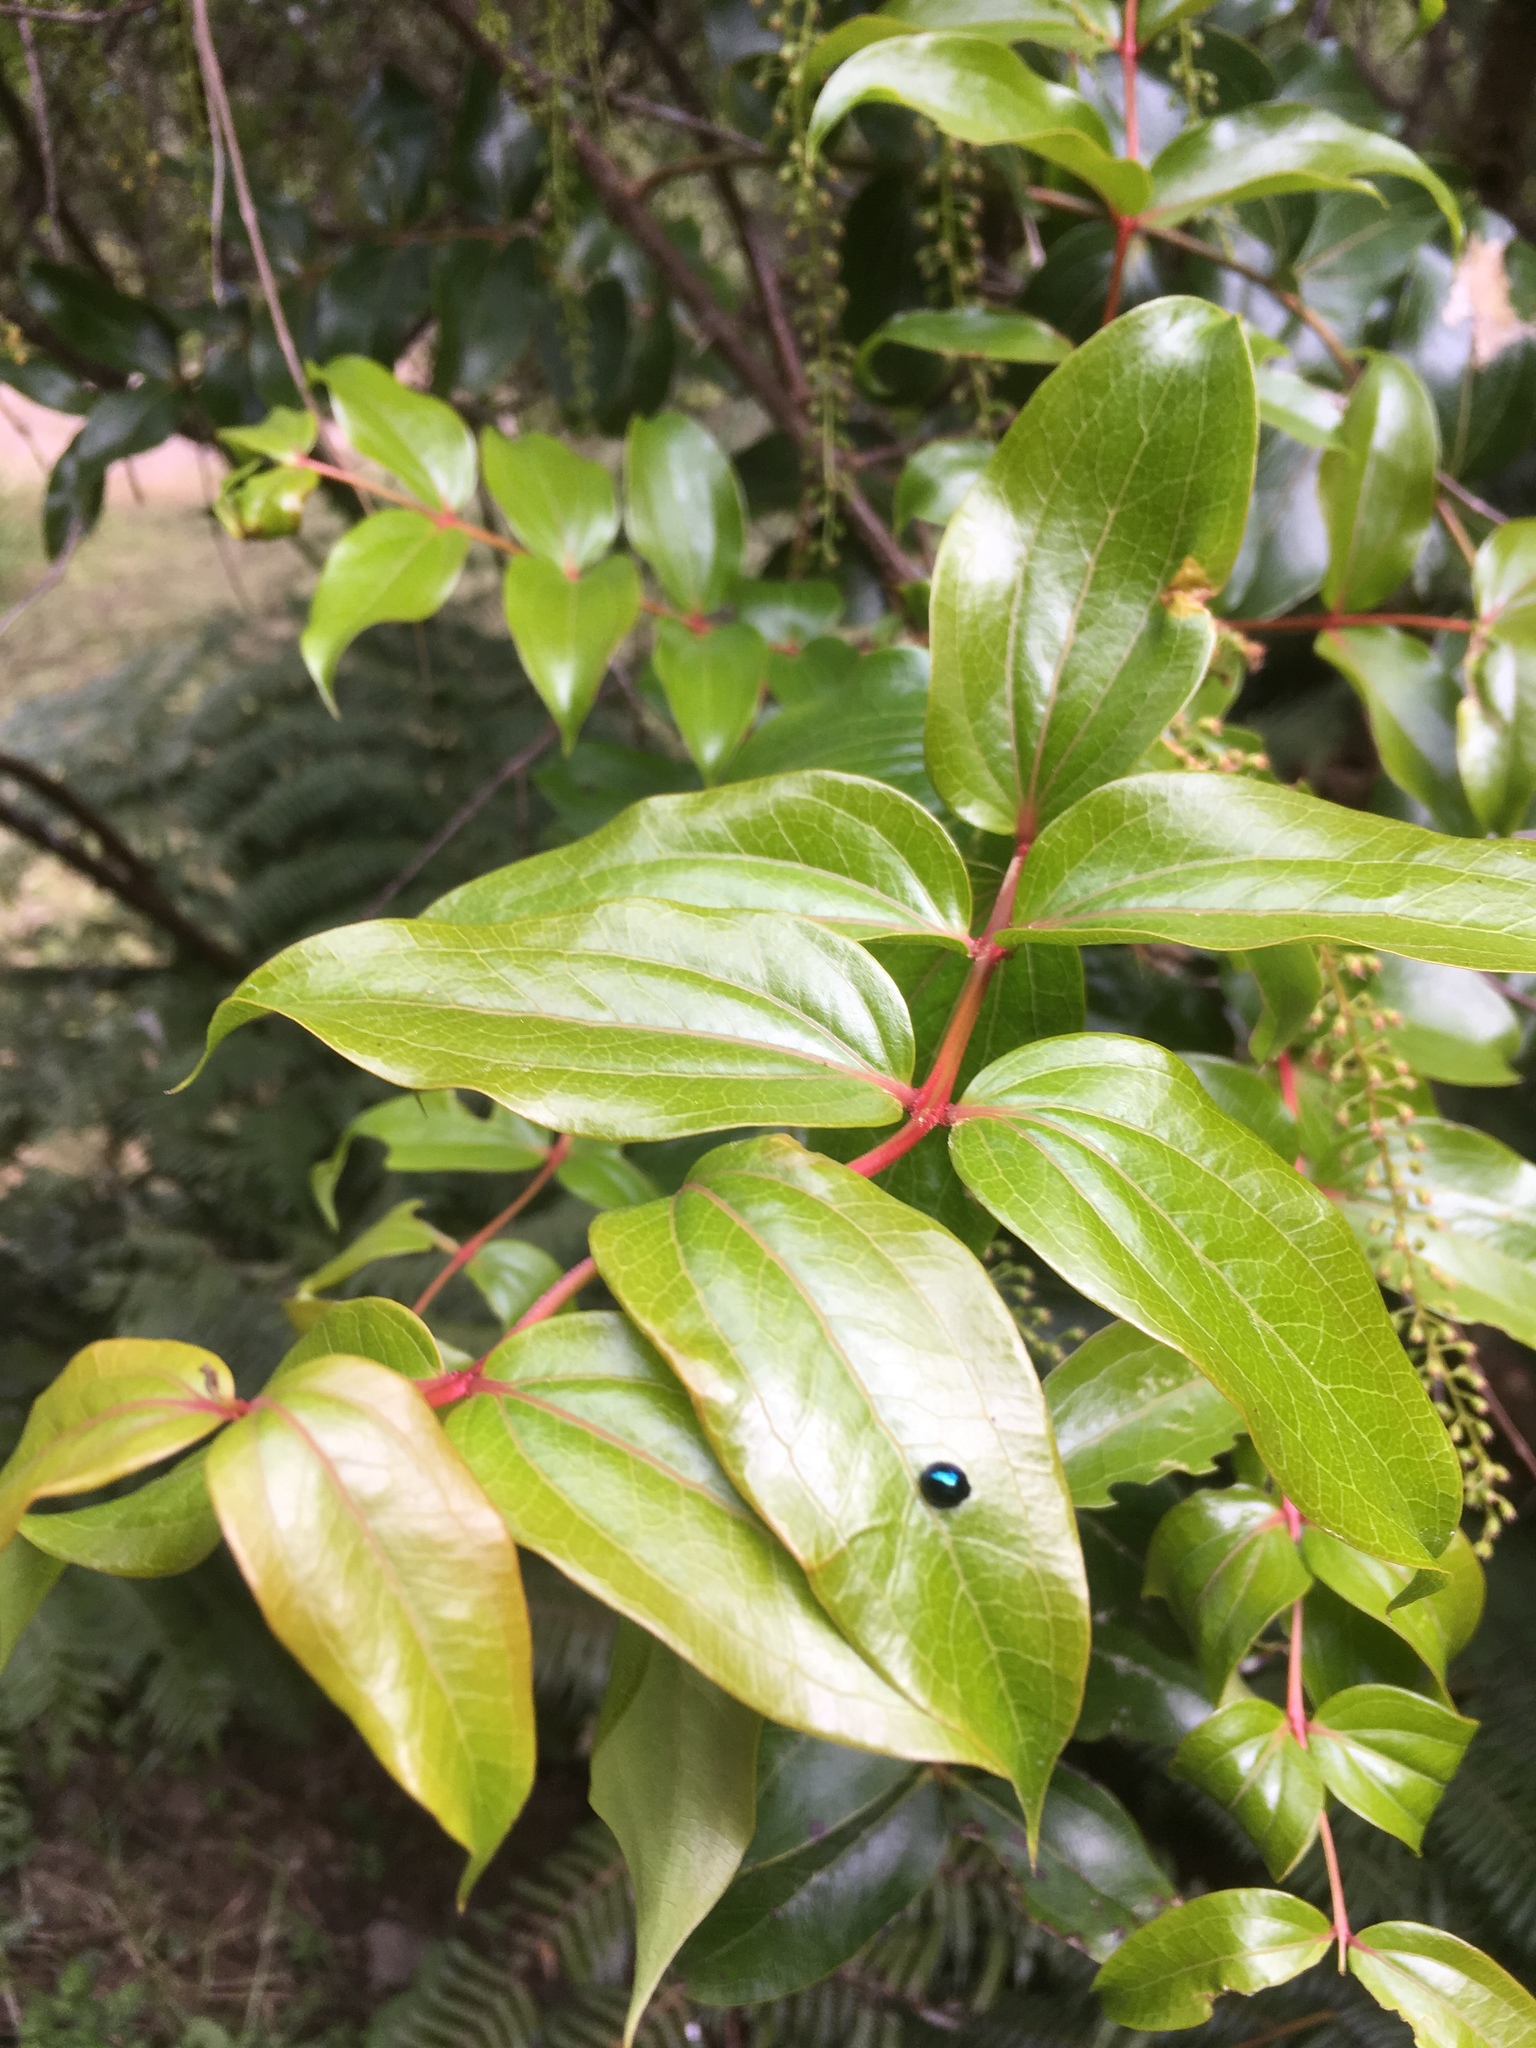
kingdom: Plantae
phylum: Tracheophyta
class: Magnoliopsida
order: Cucurbitales
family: Coriariaceae
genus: Coriaria
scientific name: Coriaria arborea
